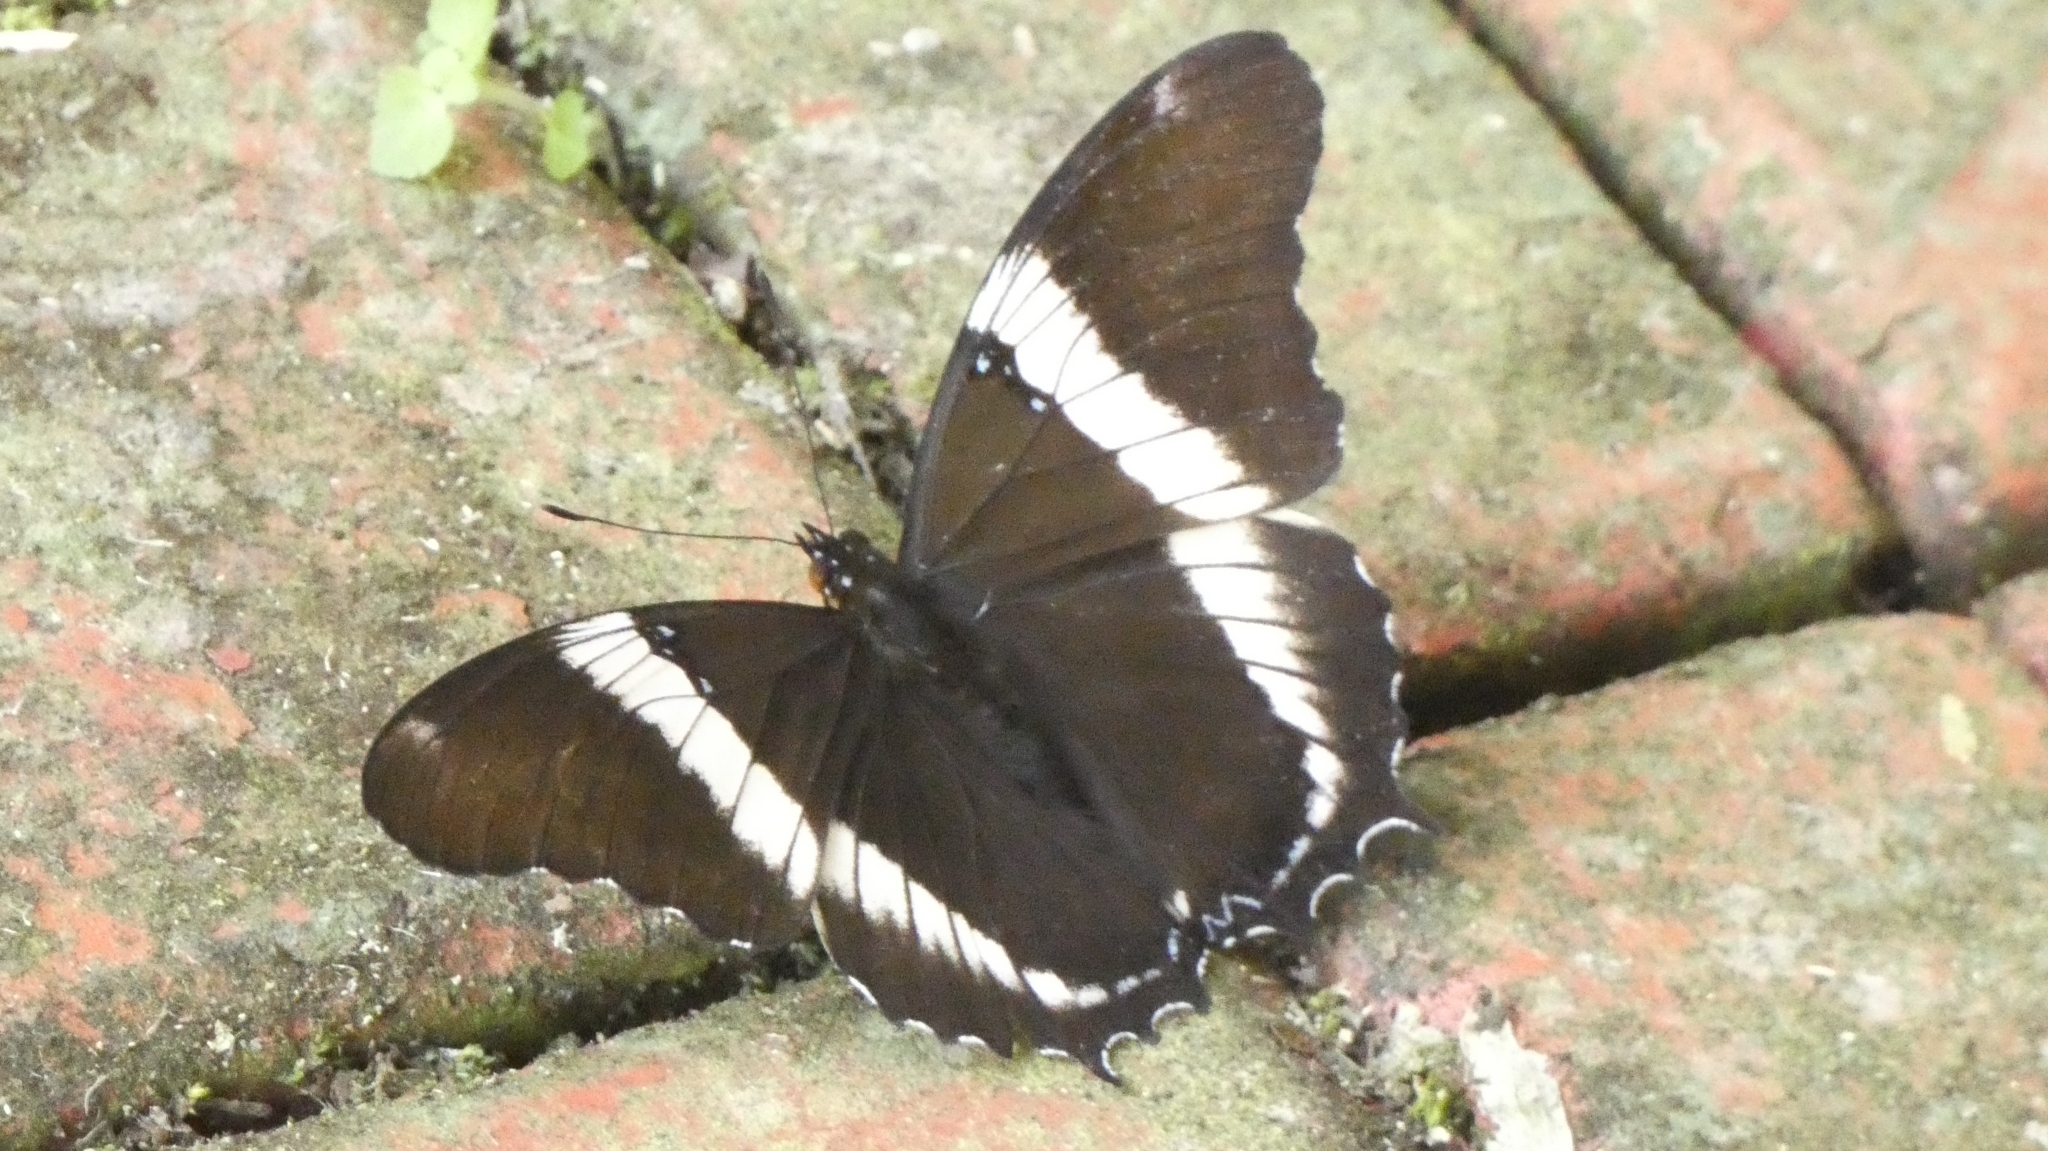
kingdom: Animalia
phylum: Arthropoda
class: Insecta
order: Lepidoptera
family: Nymphalidae
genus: Siproeta
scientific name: Siproeta epaphus
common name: Rusty-tipped page
